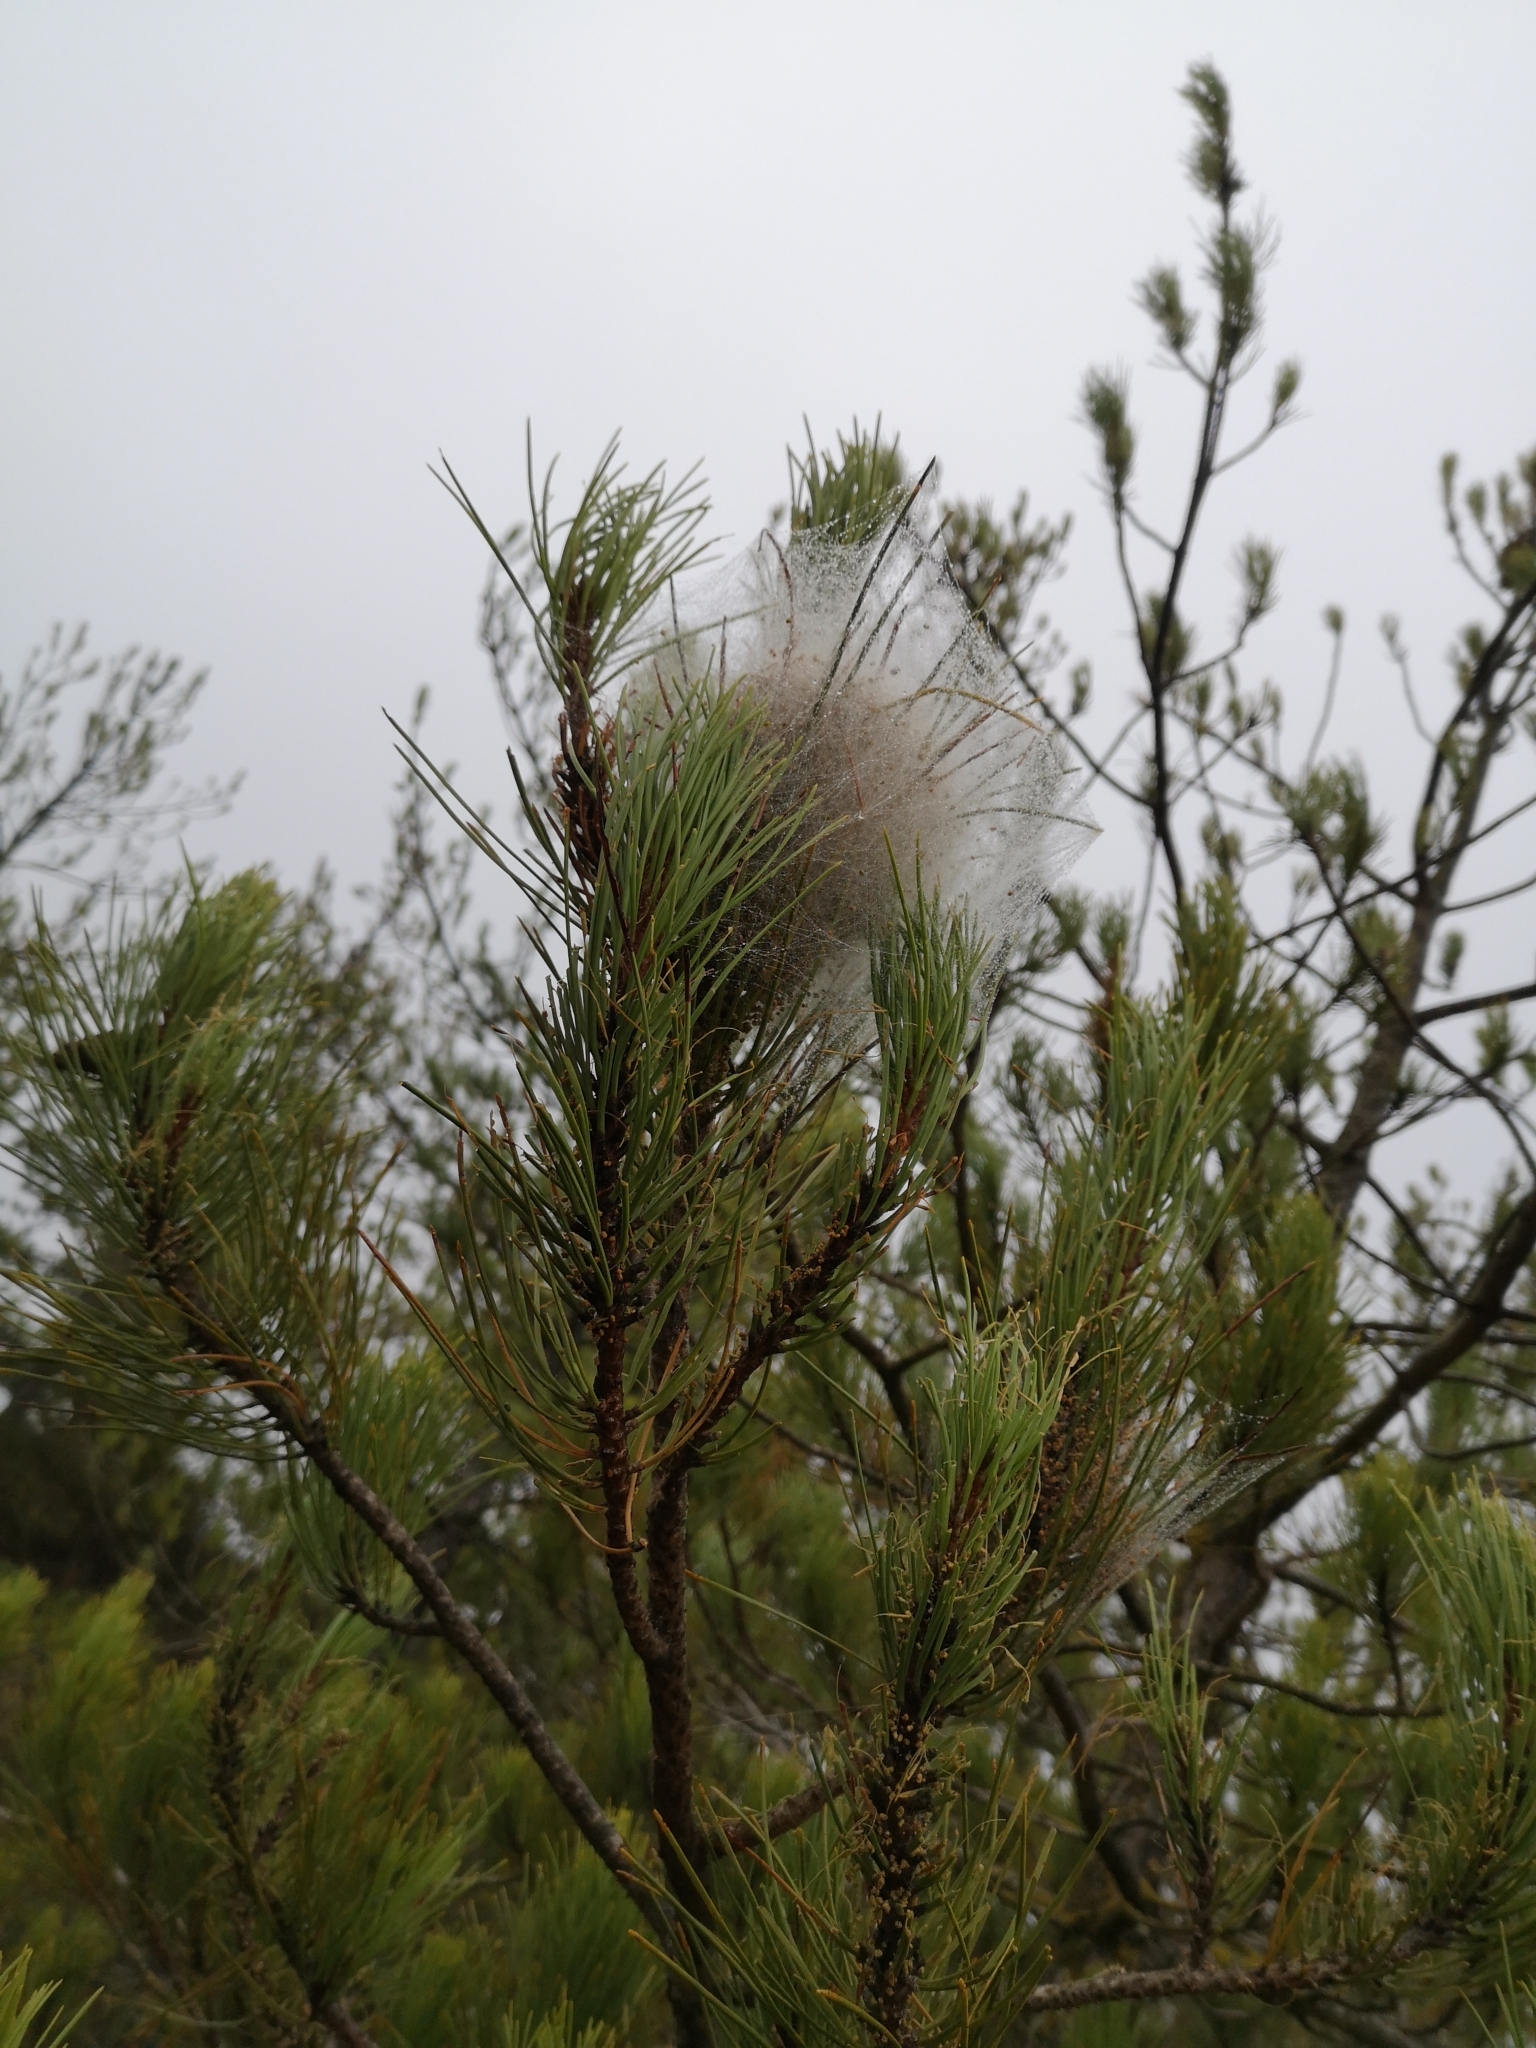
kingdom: Animalia
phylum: Arthropoda
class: Insecta
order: Lepidoptera
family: Notodontidae
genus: Thaumetopoea
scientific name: Thaumetopoea pityocampa
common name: Pine processionary
